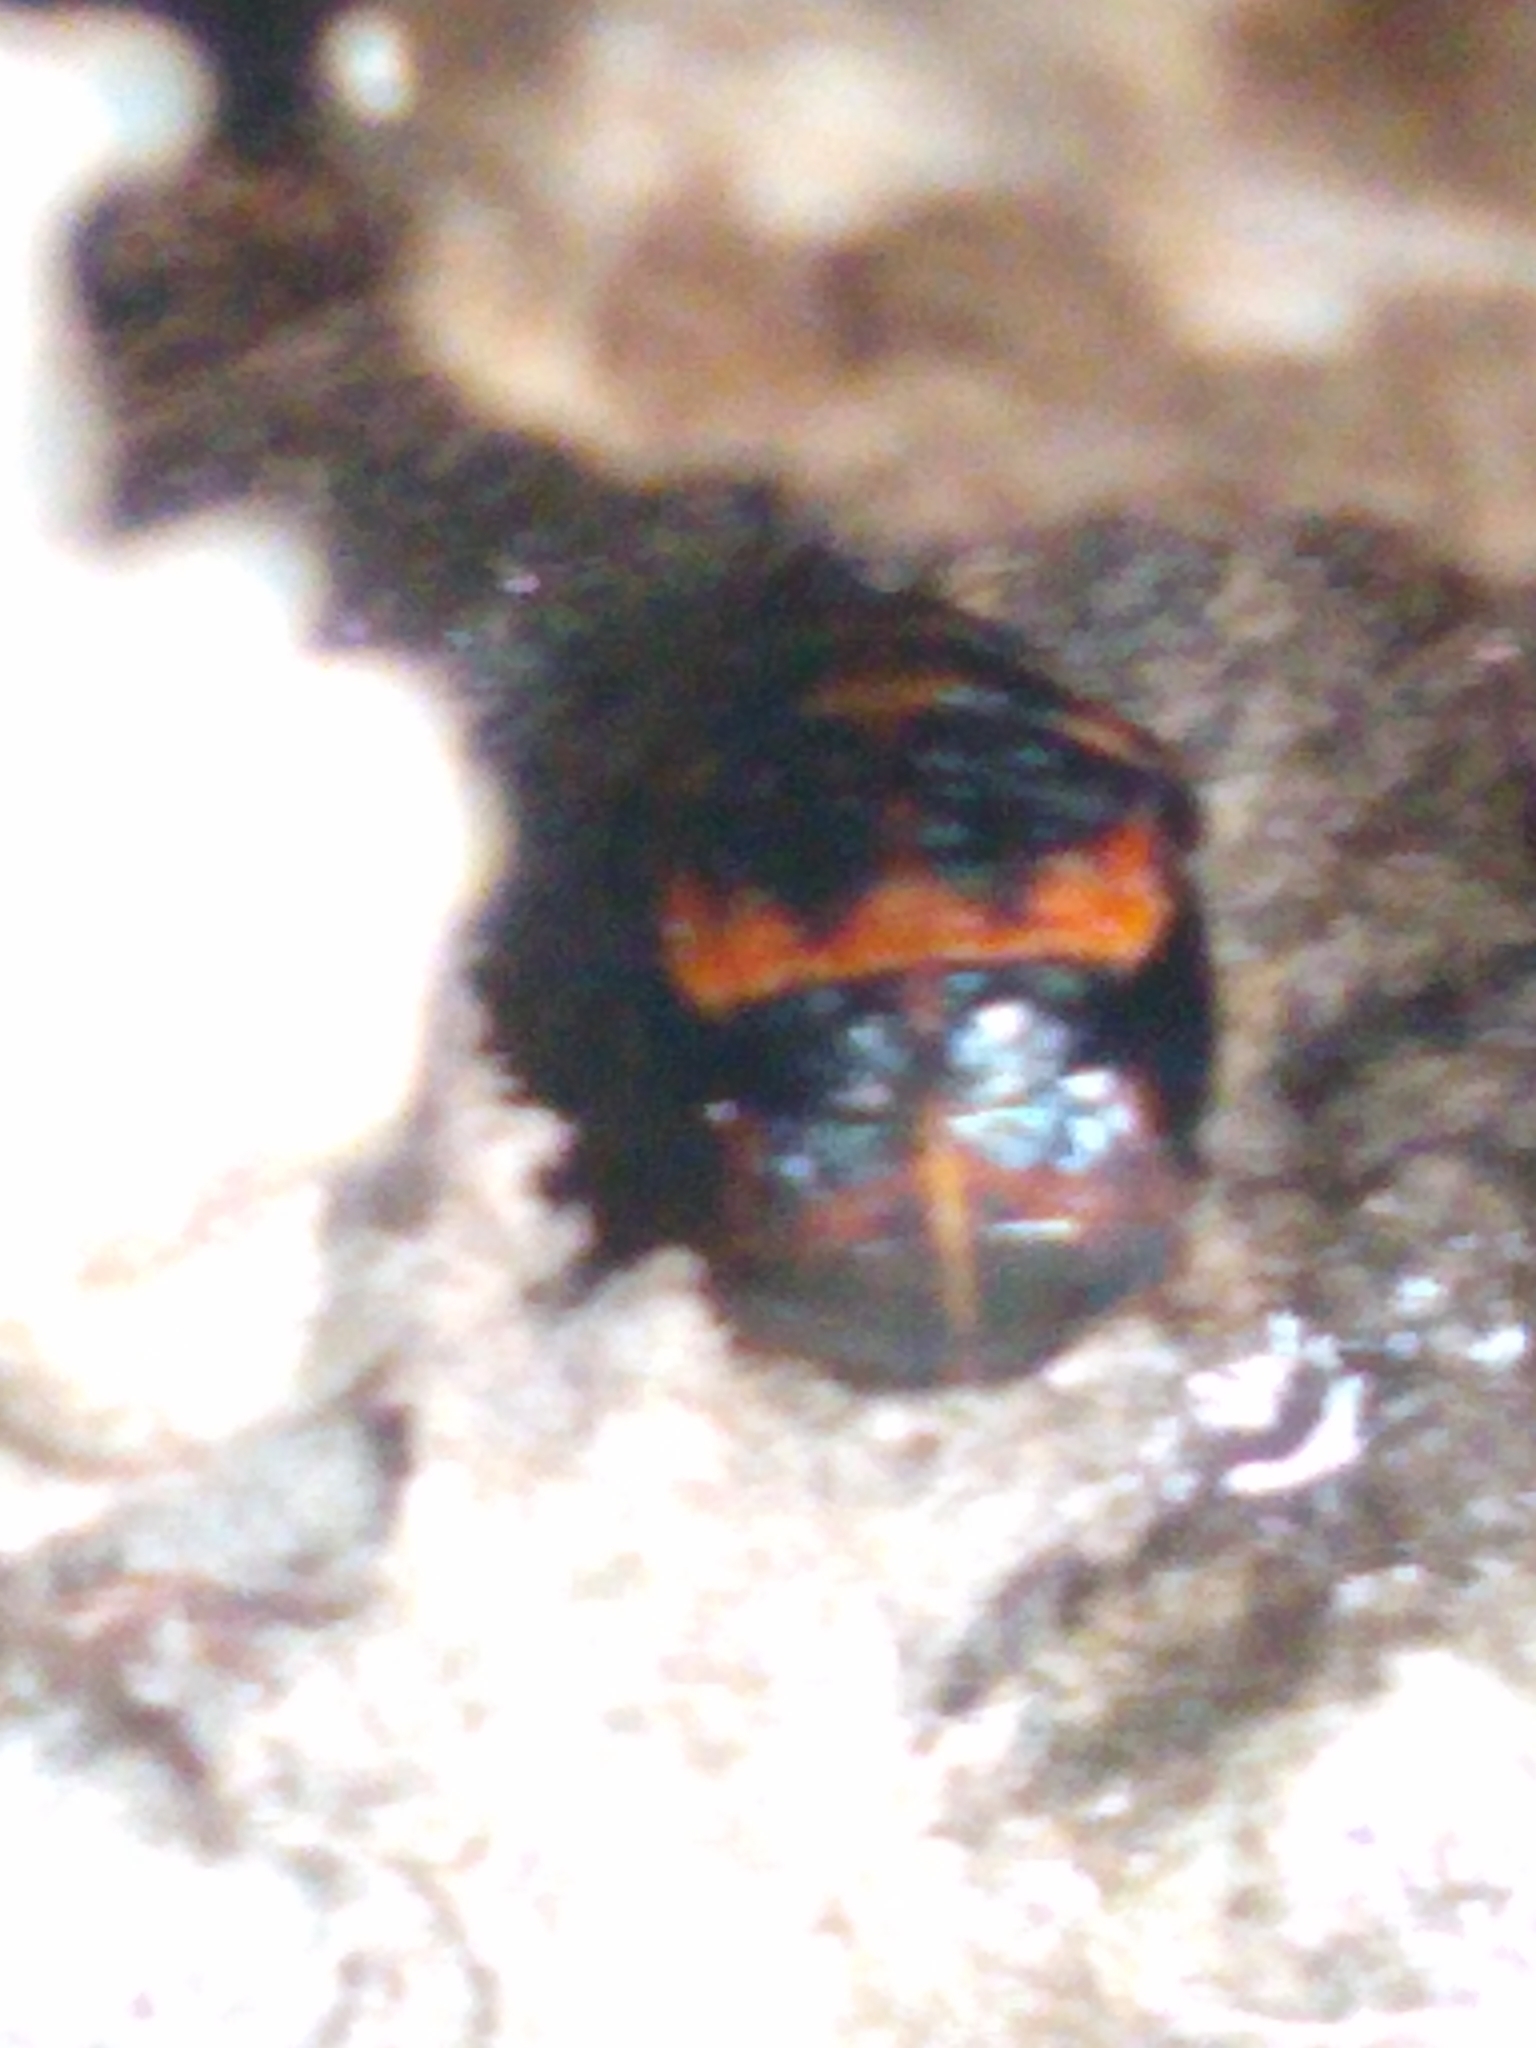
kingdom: Animalia
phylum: Arthropoda
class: Insecta
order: Coleoptera
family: Coccinellidae
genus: Harmonia
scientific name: Harmonia axyridis
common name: Harlequin ladybird
